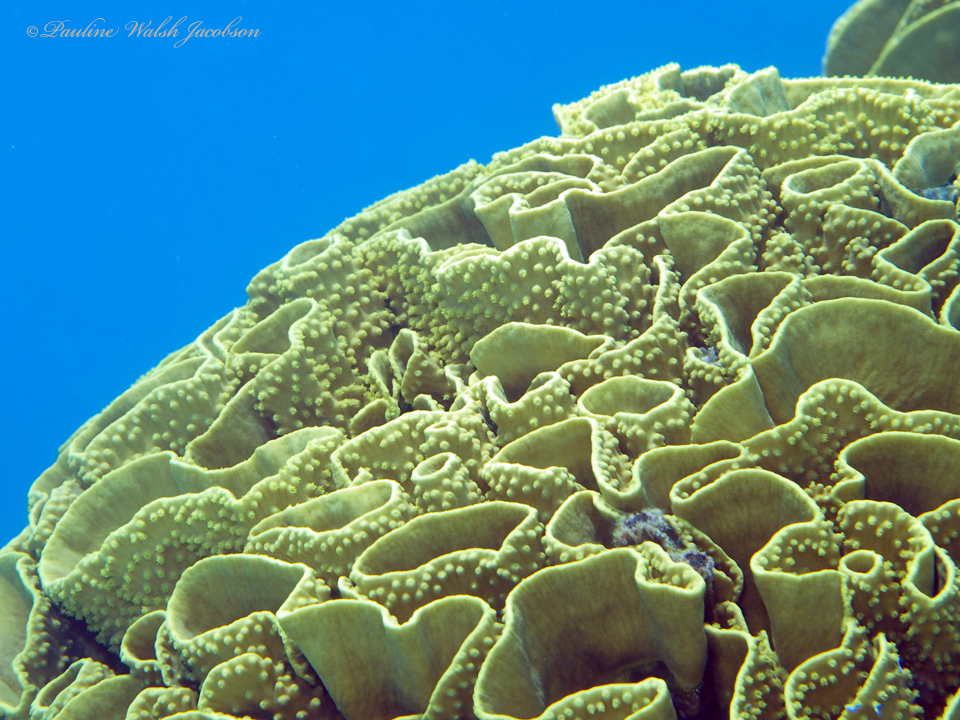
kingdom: Animalia
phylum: Cnidaria
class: Anthozoa
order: Scleractinia
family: Dendrophylliidae
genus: Turbinaria
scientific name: Turbinaria reniformis
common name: Disc coral
